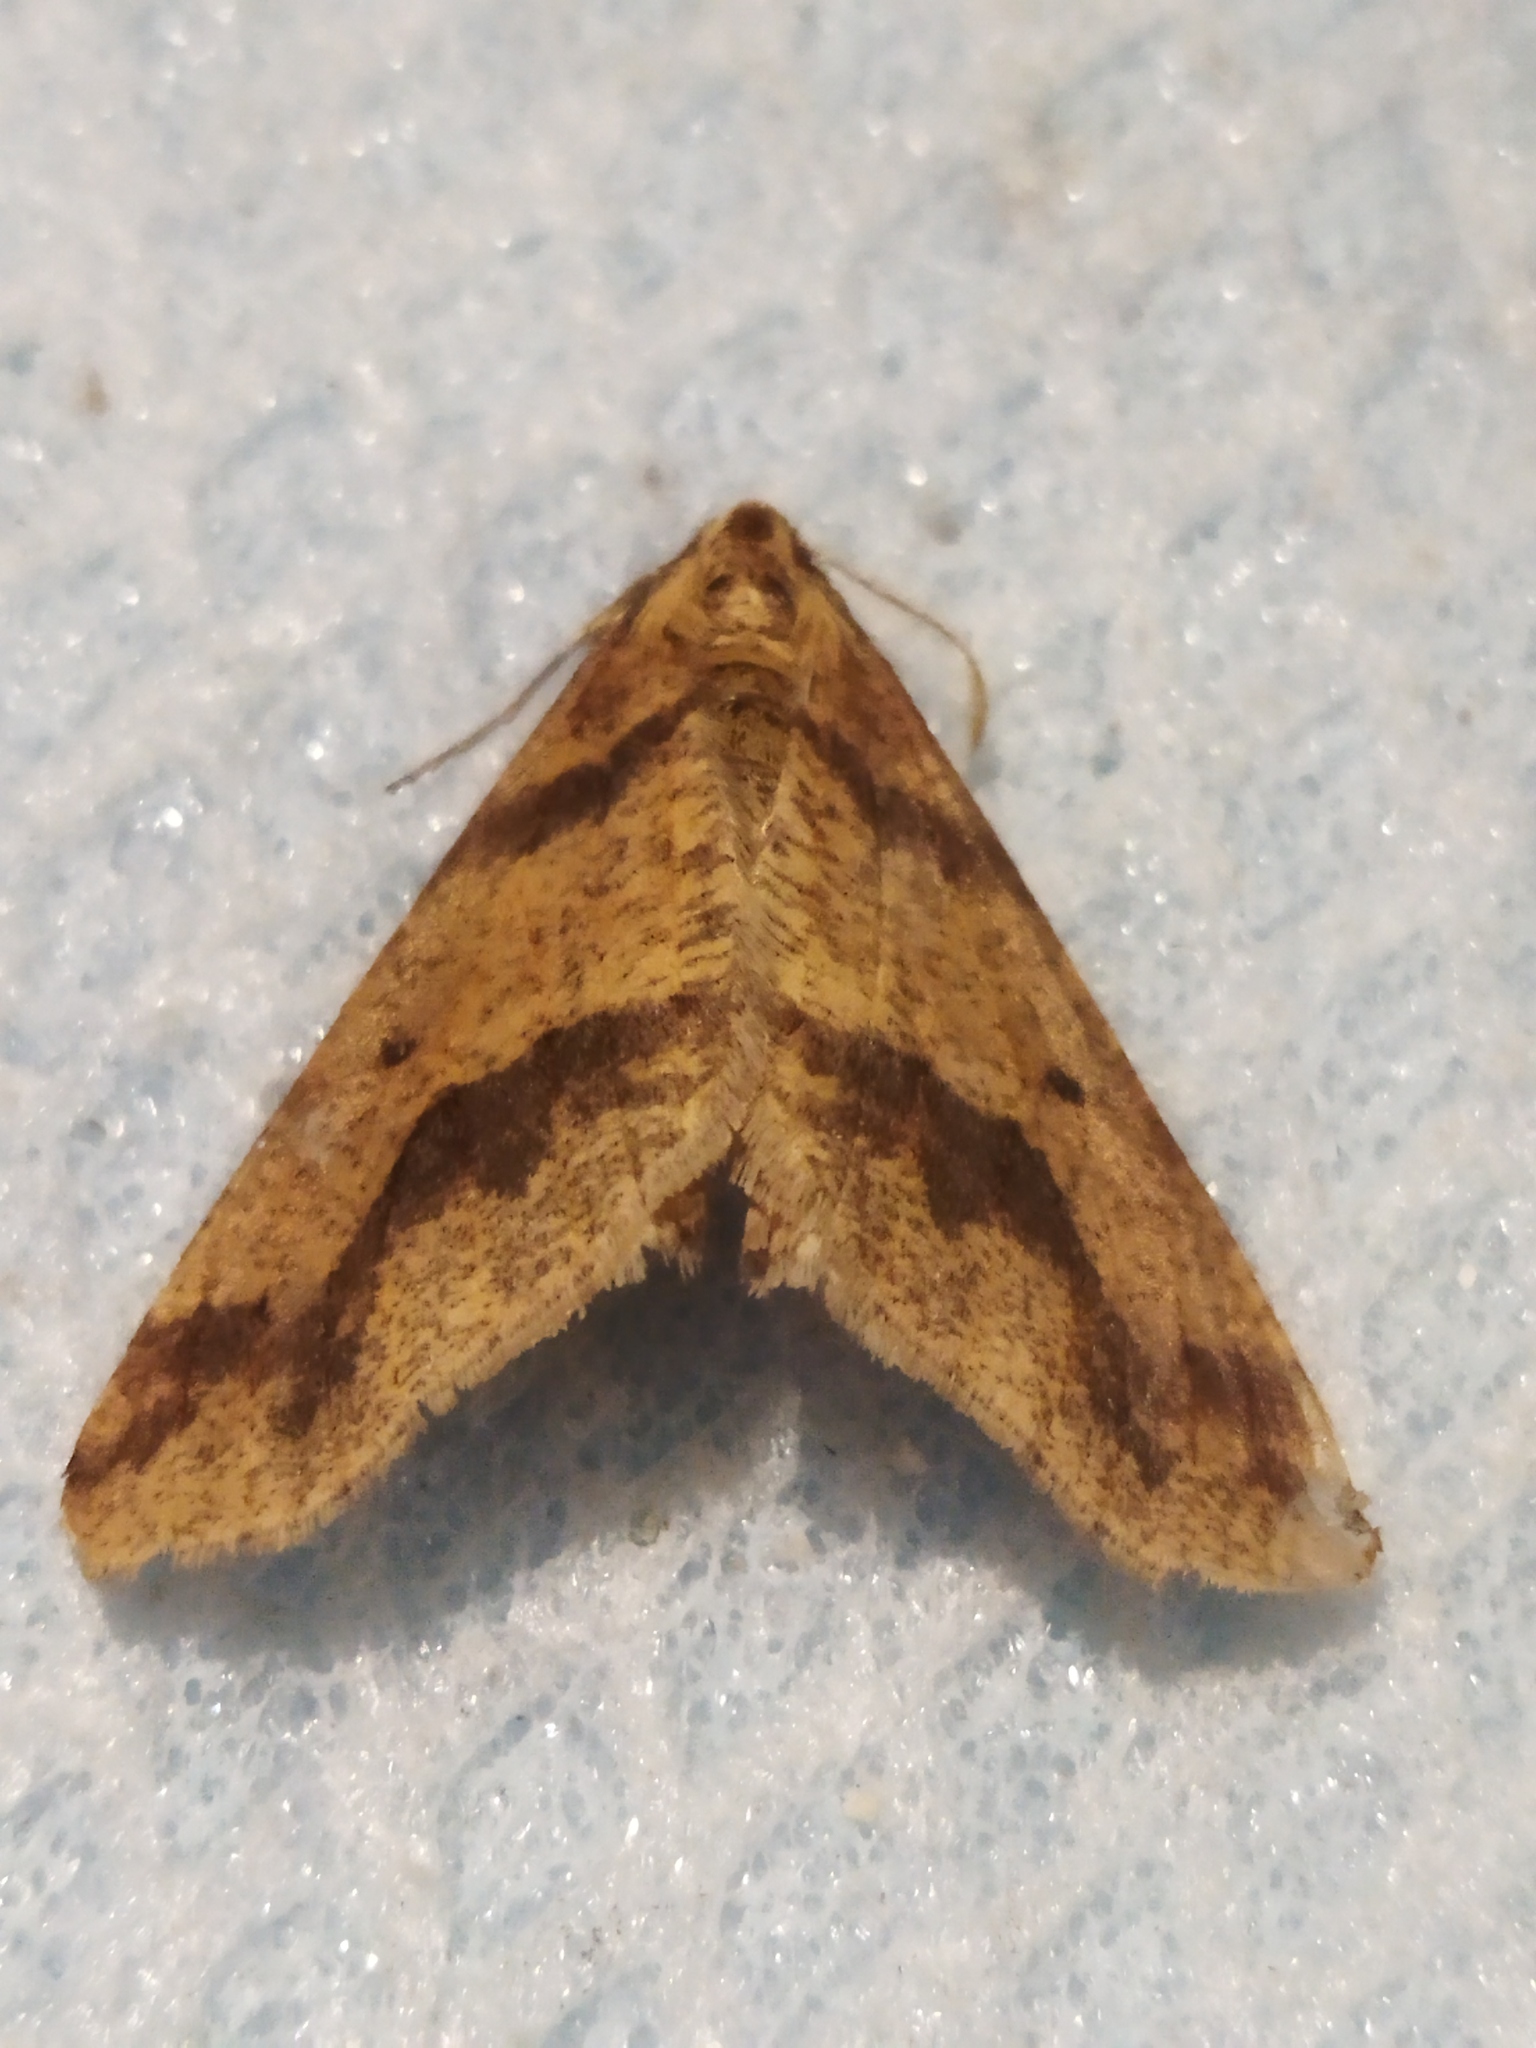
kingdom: Animalia
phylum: Arthropoda
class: Insecta
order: Lepidoptera
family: Geometridae
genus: Erannis
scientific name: Erannis defoliaria
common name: Mottled umber
